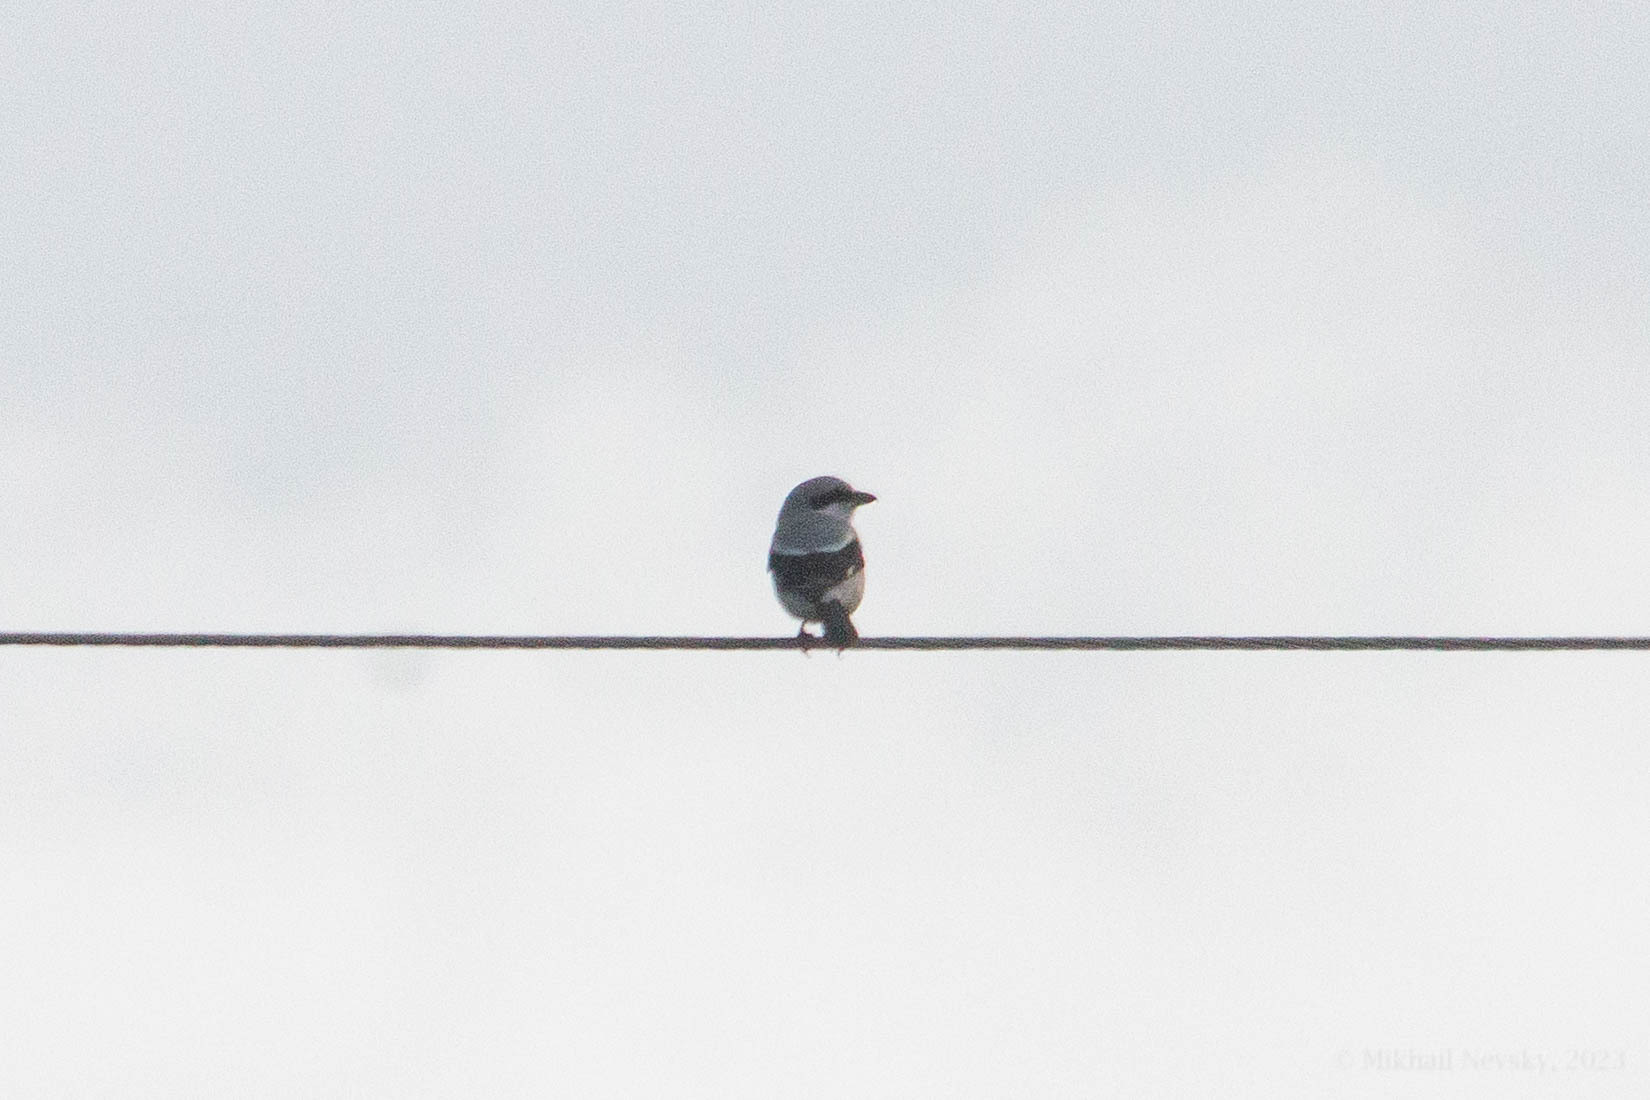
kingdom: Animalia
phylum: Chordata
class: Aves
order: Passeriformes
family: Laniidae
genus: Lanius
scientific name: Lanius excubitor
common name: Great grey shrike
